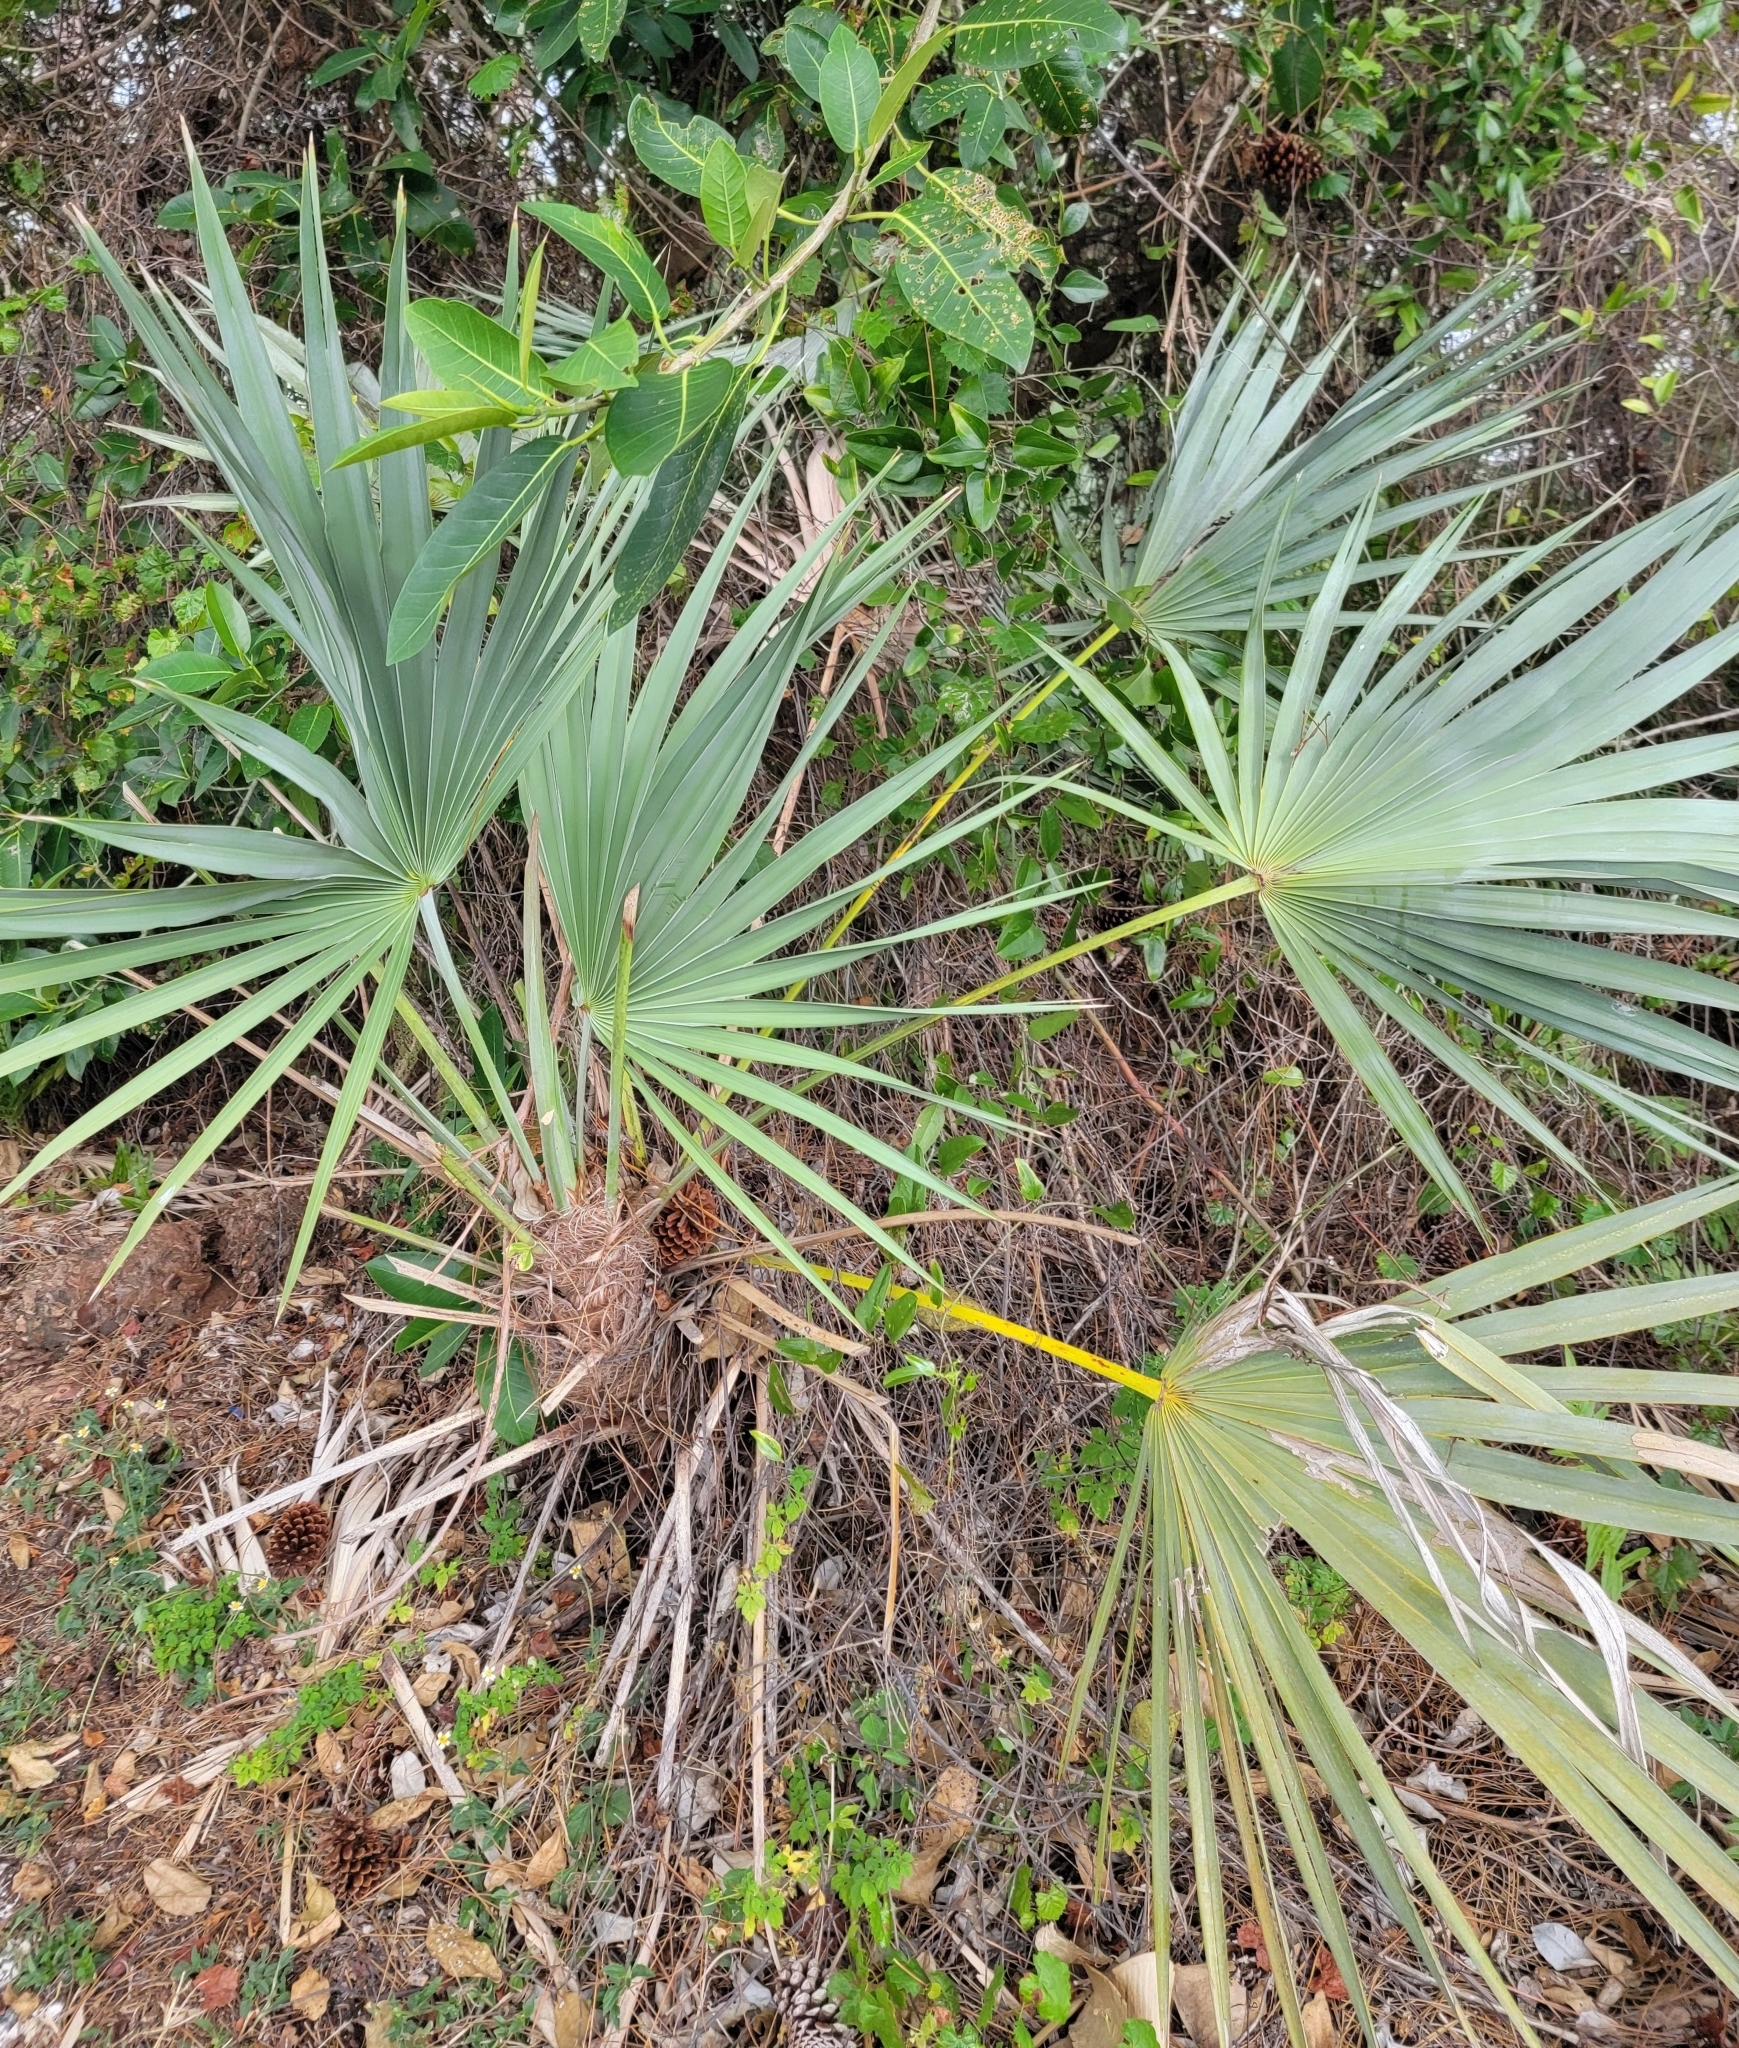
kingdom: Plantae
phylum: Tracheophyta
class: Liliopsida
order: Arecales
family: Arecaceae
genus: Serenoa
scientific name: Serenoa repens
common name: Saw-palmetto
